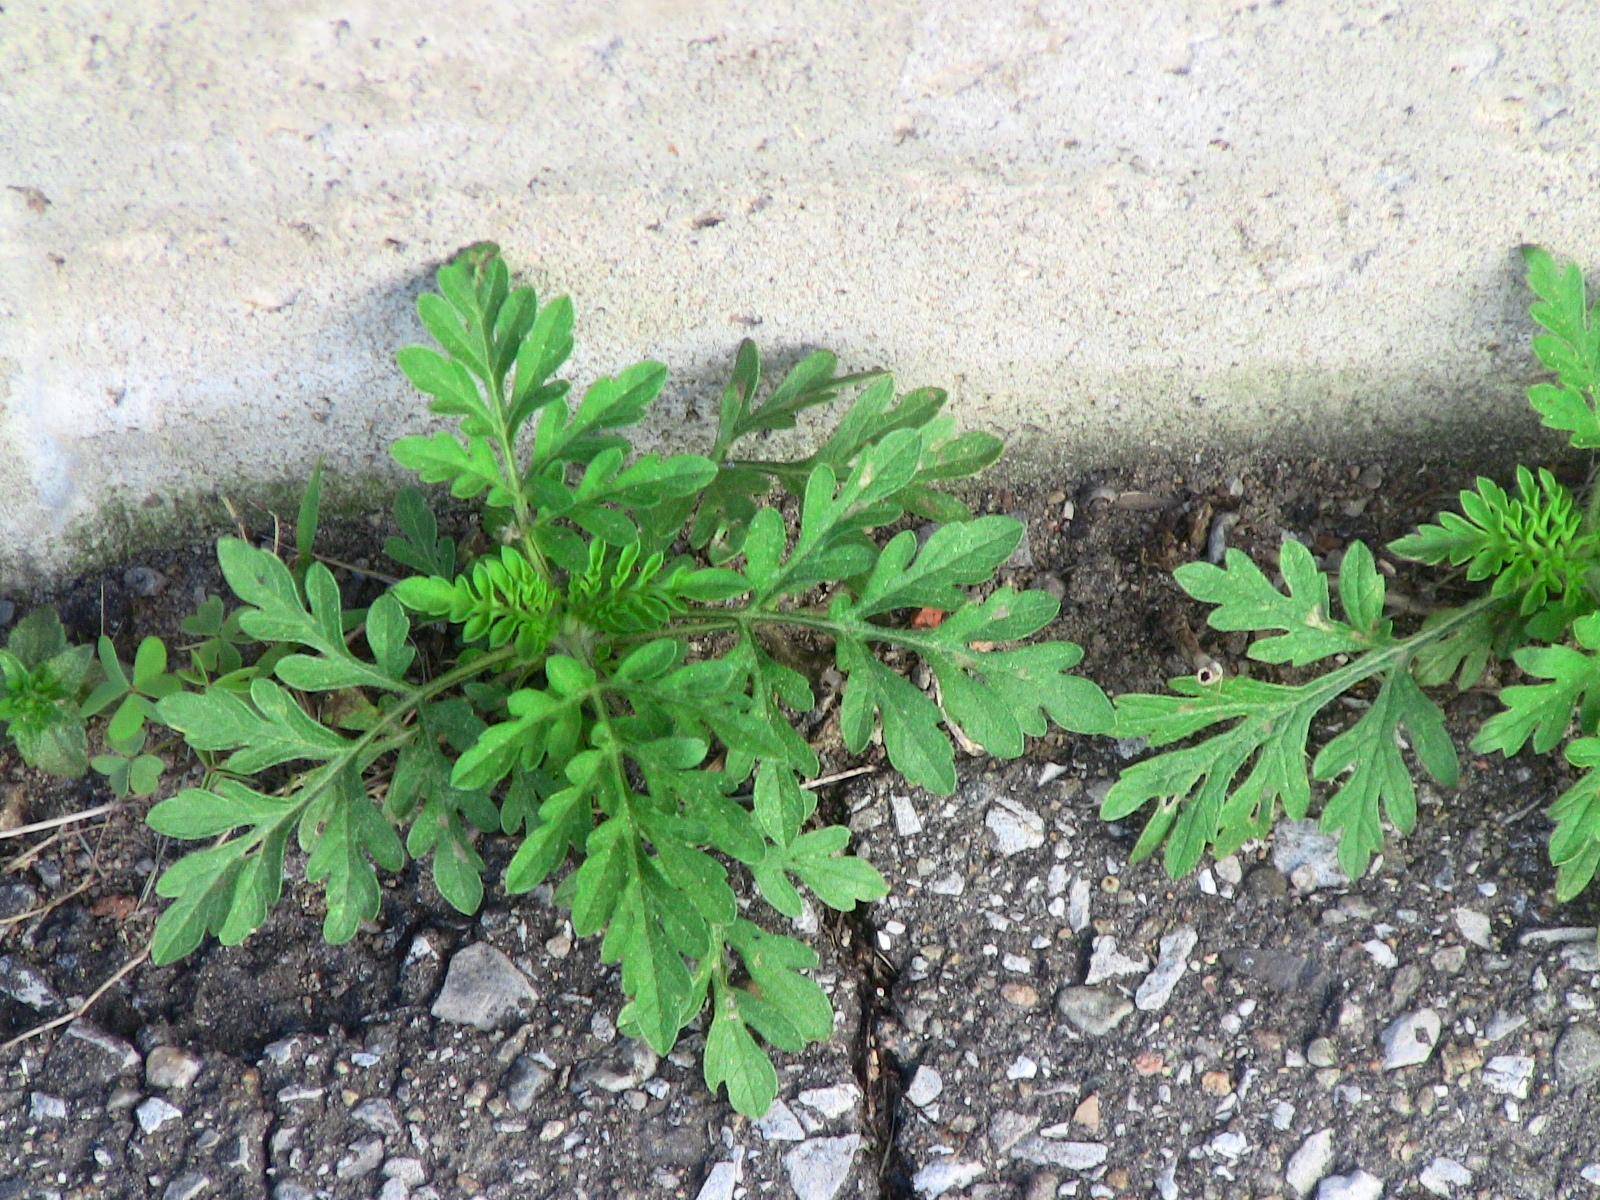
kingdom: Plantae
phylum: Tracheophyta
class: Magnoliopsida
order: Asterales
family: Asteraceae
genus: Ambrosia
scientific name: Ambrosia artemisiifolia
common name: Annual ragweed
